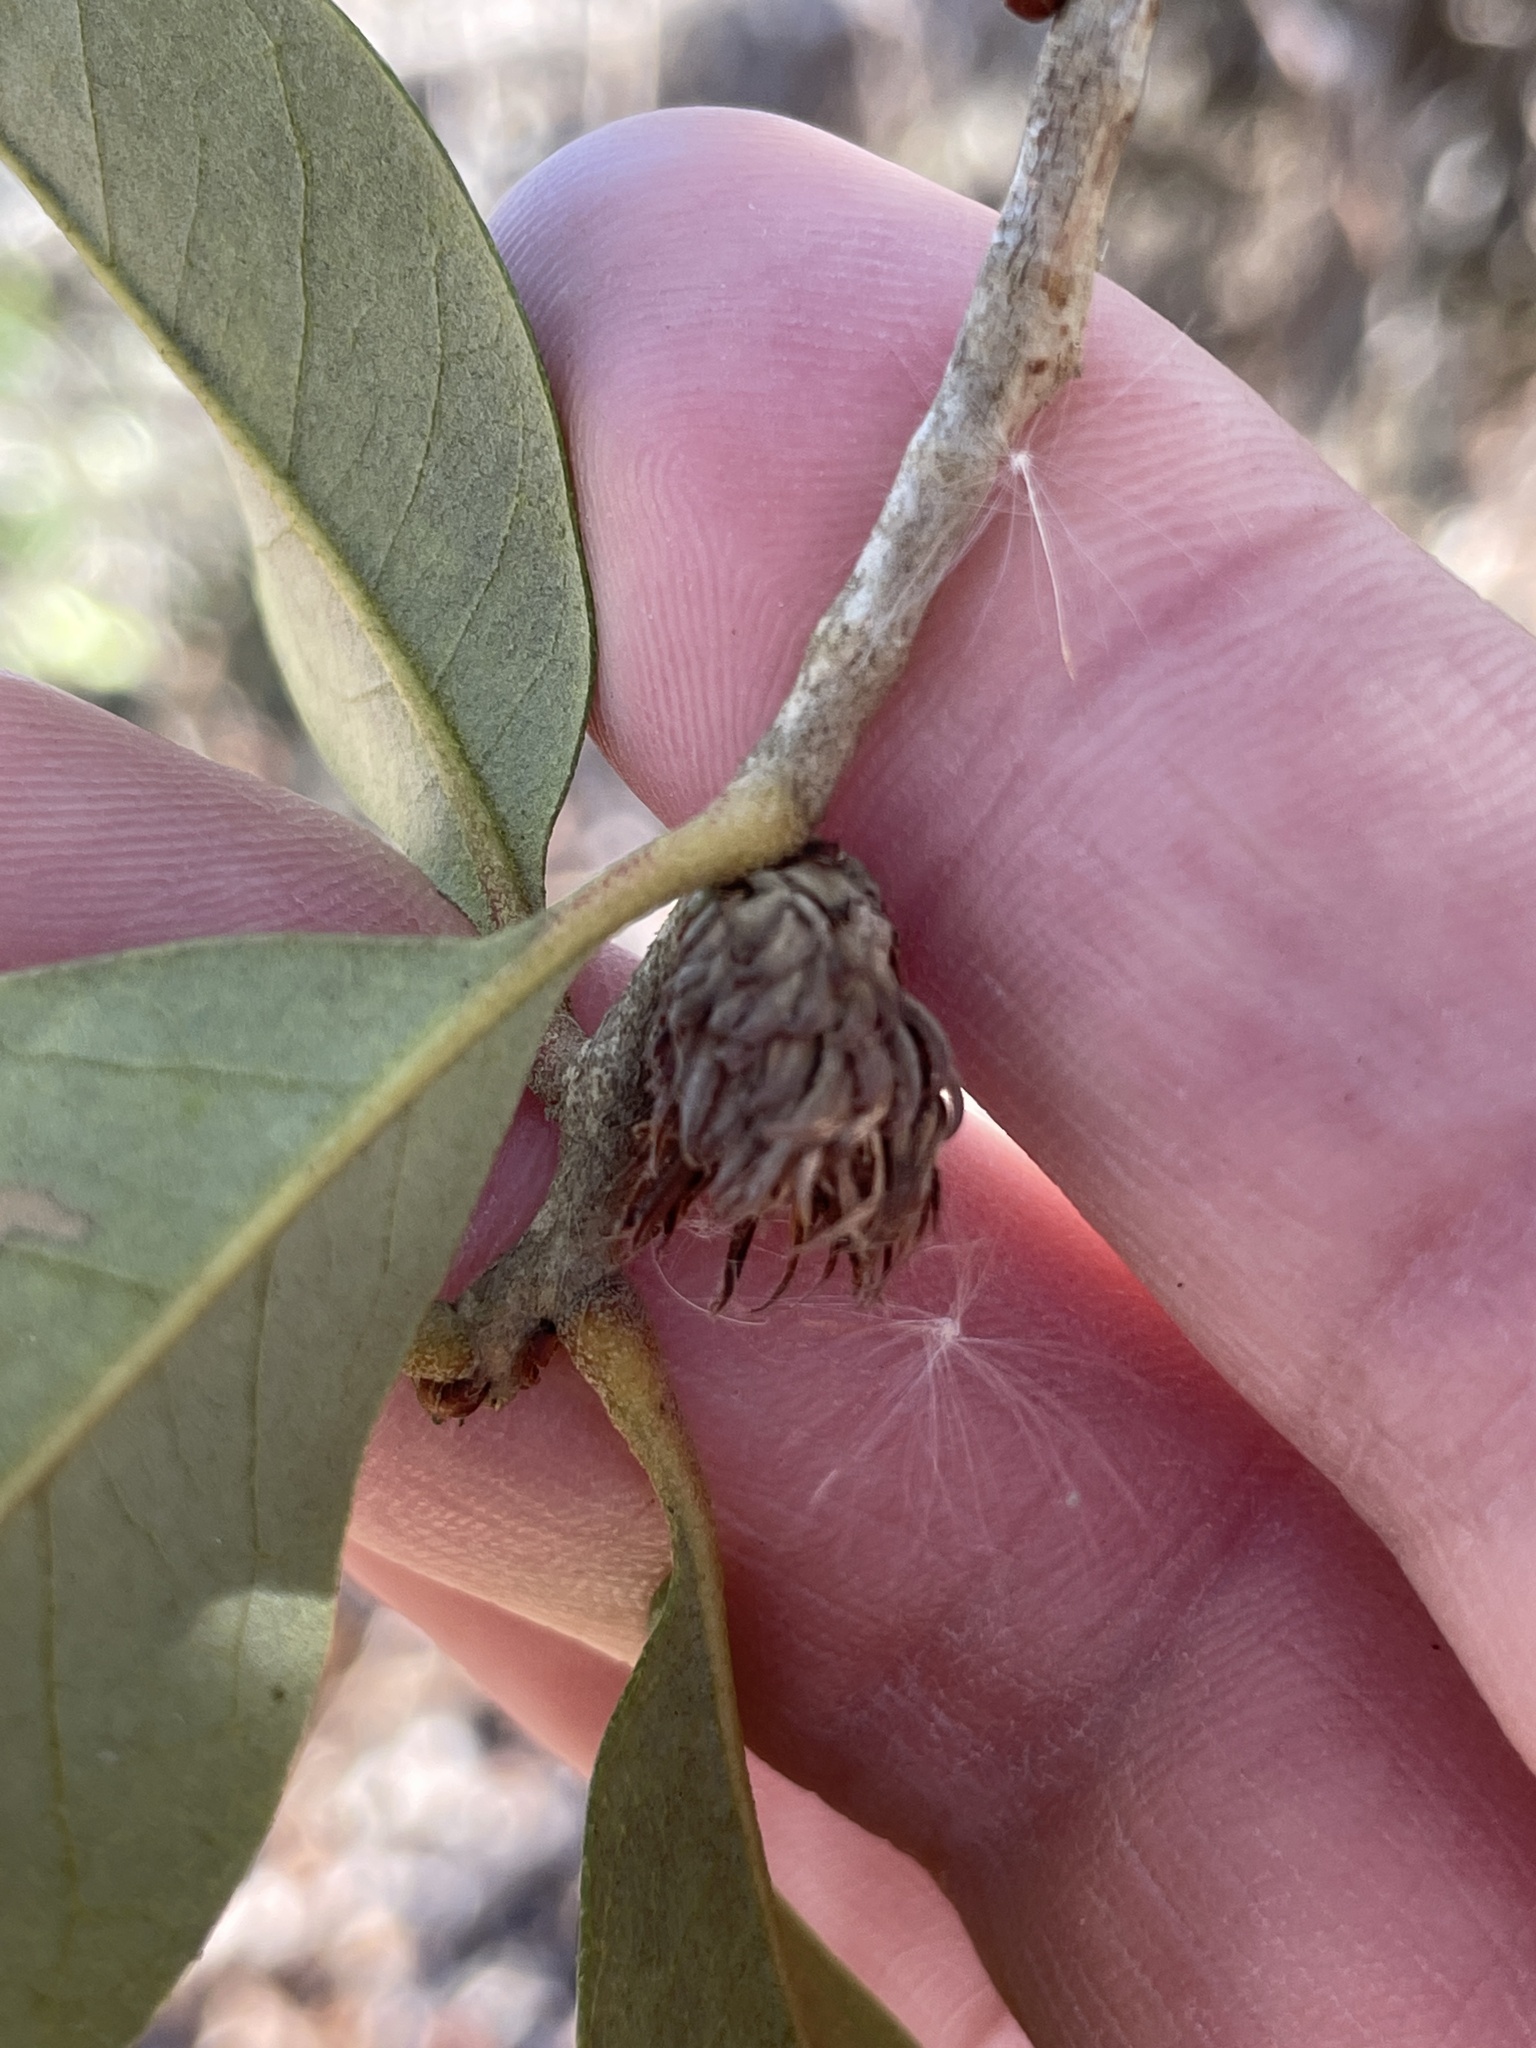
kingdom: Animalia
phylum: Arthropoda
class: Insecta
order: Hymenoptera
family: Cynipidae
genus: Andricus
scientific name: Andricus quercusfoliatus
